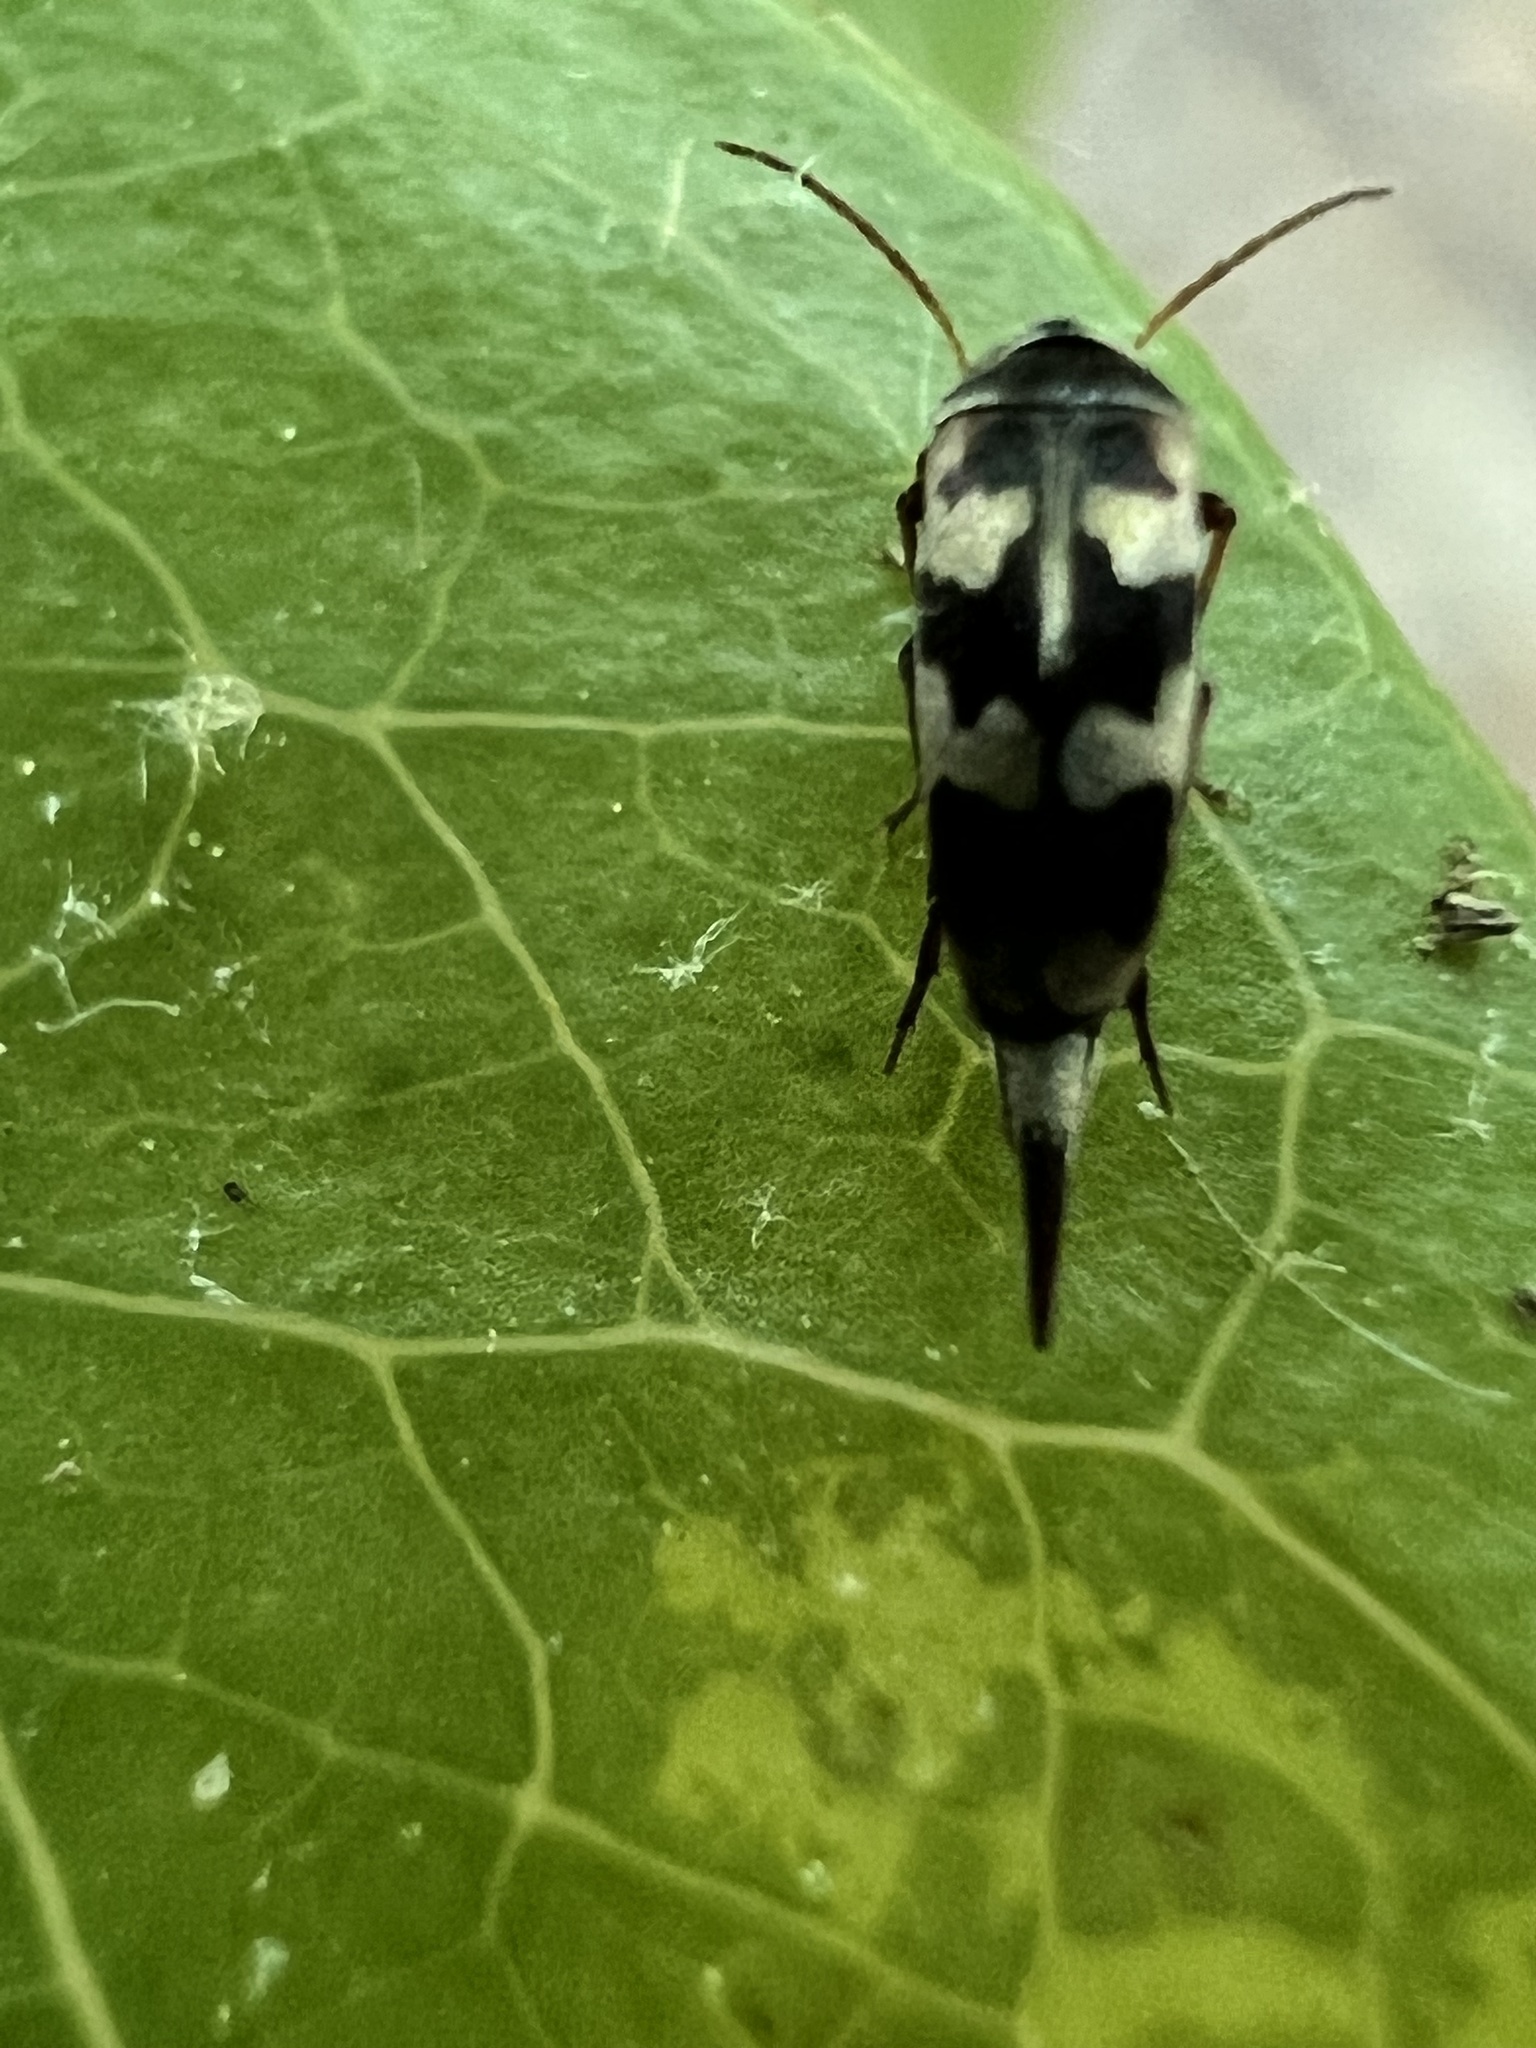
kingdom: Animalia
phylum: Arthropoda
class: Insecta
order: Coleoptera
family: Mordellidae
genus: Falsomordellistena
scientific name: Falsomordellistena pubescens
